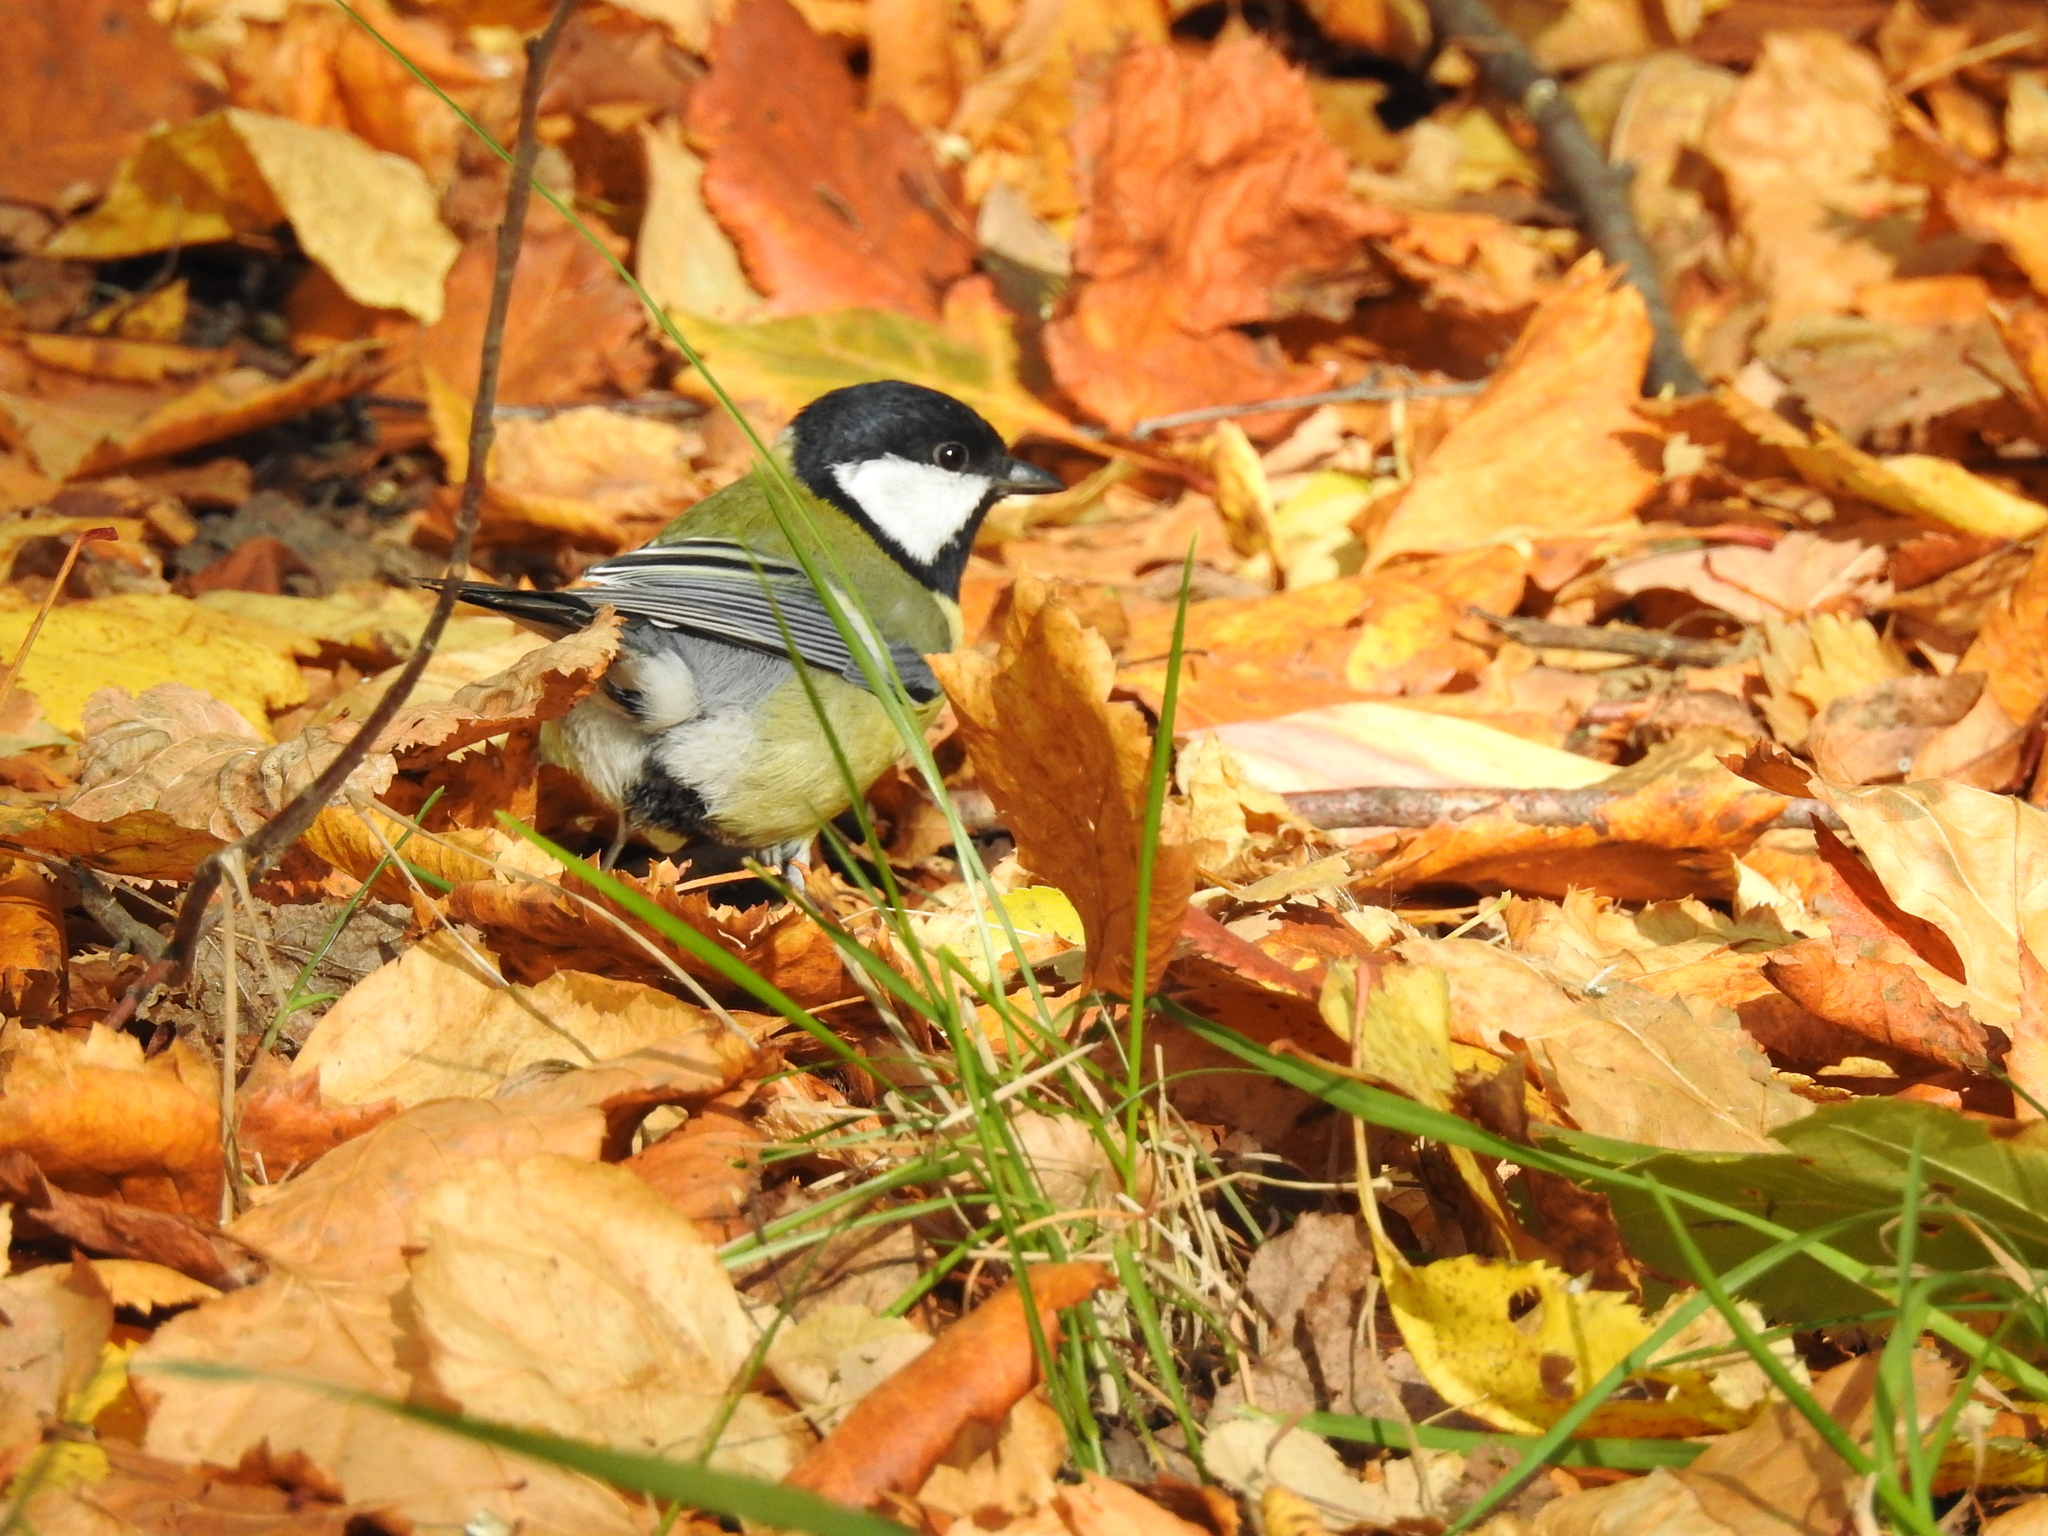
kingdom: Animalia
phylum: Chordata
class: Aves
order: Passeriformes
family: Paridae
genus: Parus
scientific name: Parus major
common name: Great tit
